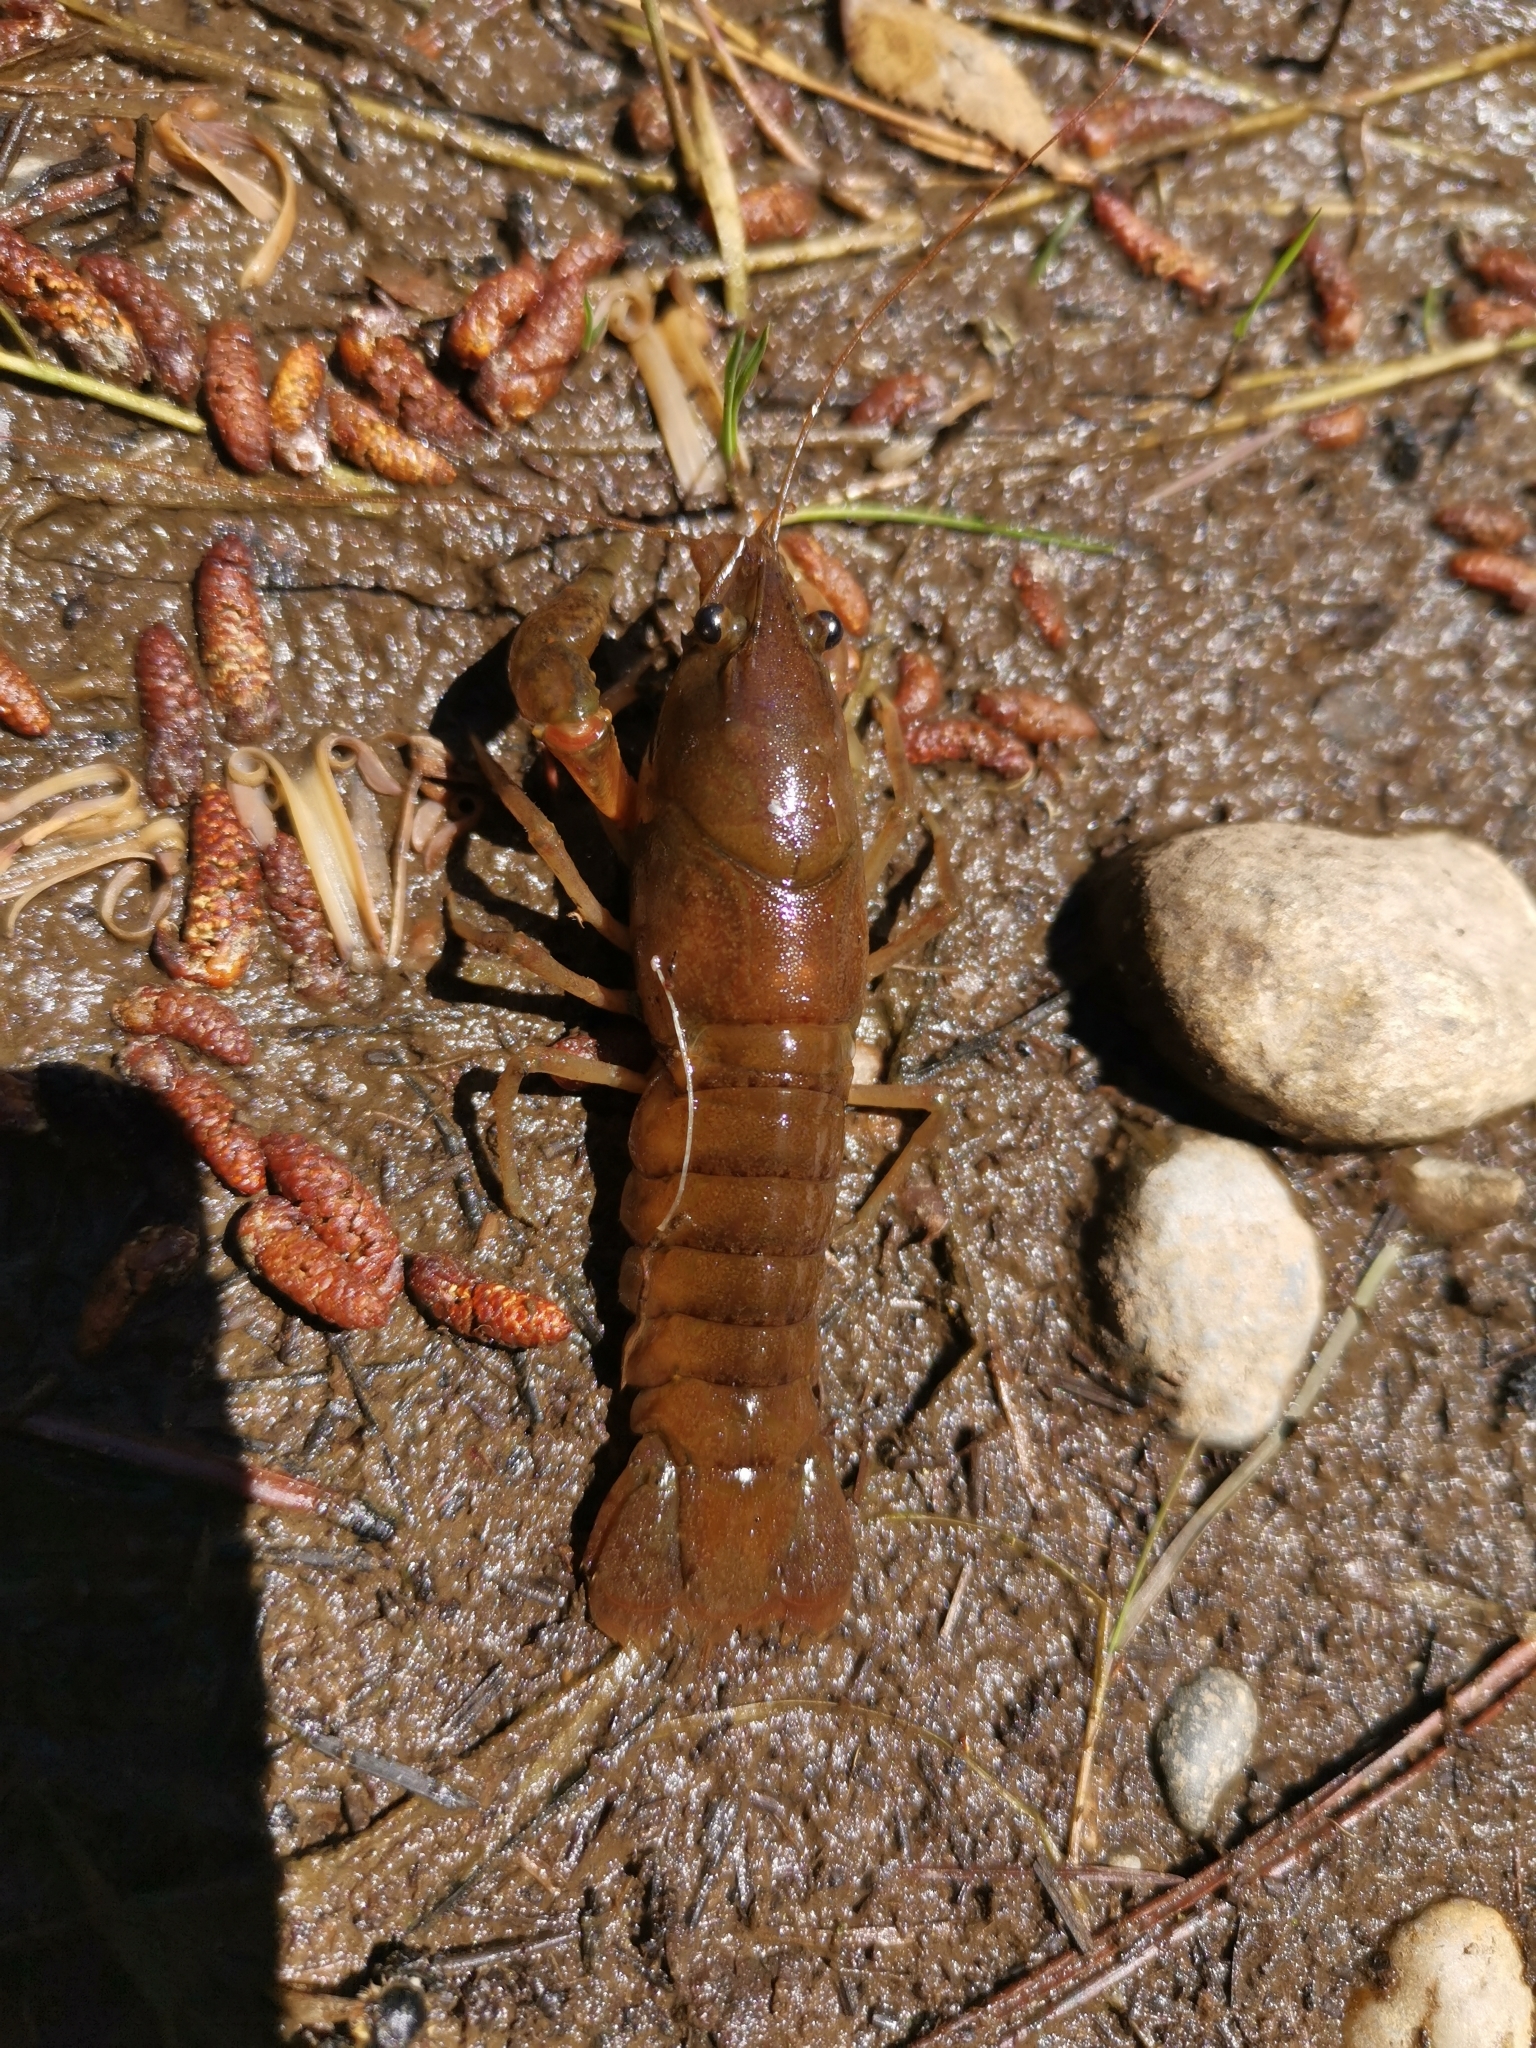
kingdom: Animalia
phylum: Arthropoda
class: Malacostraca
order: Decapoda
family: Parastacidae
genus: Samastacus
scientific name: Samastacus spinifrons
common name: River crayfish
